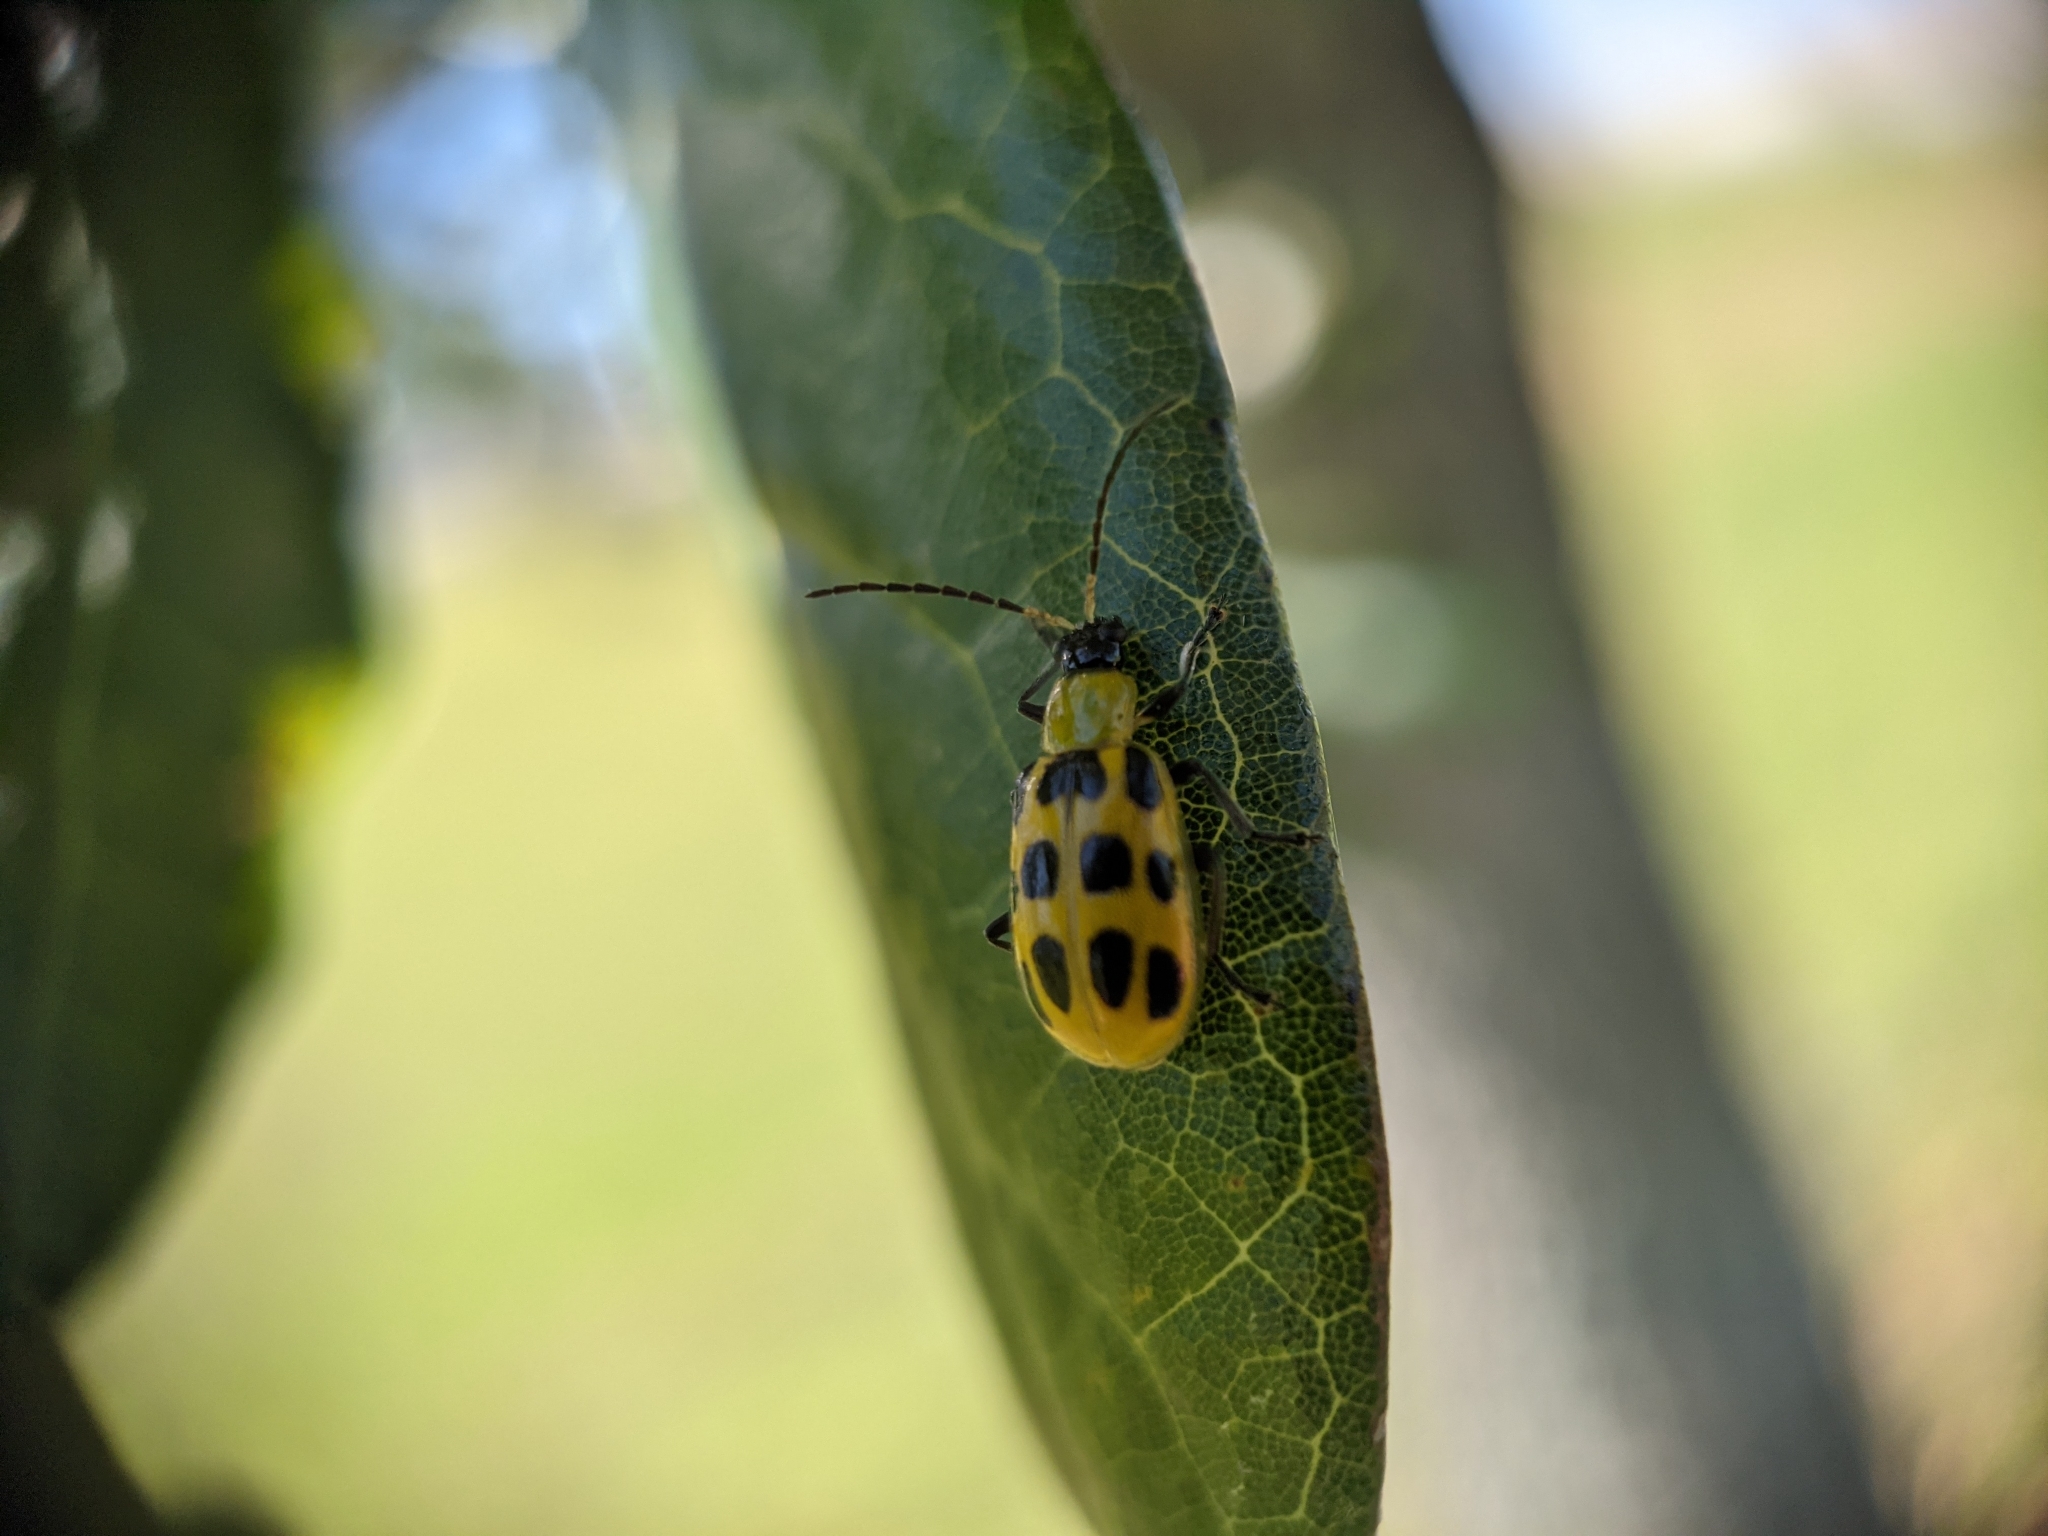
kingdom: Animalia
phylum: Arthropoda
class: Insecta
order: Coleoptera
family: Chrysomelidae
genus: Diabrotica
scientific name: Diabrotica undecimpunctata
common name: Spotted cucumber beetle
